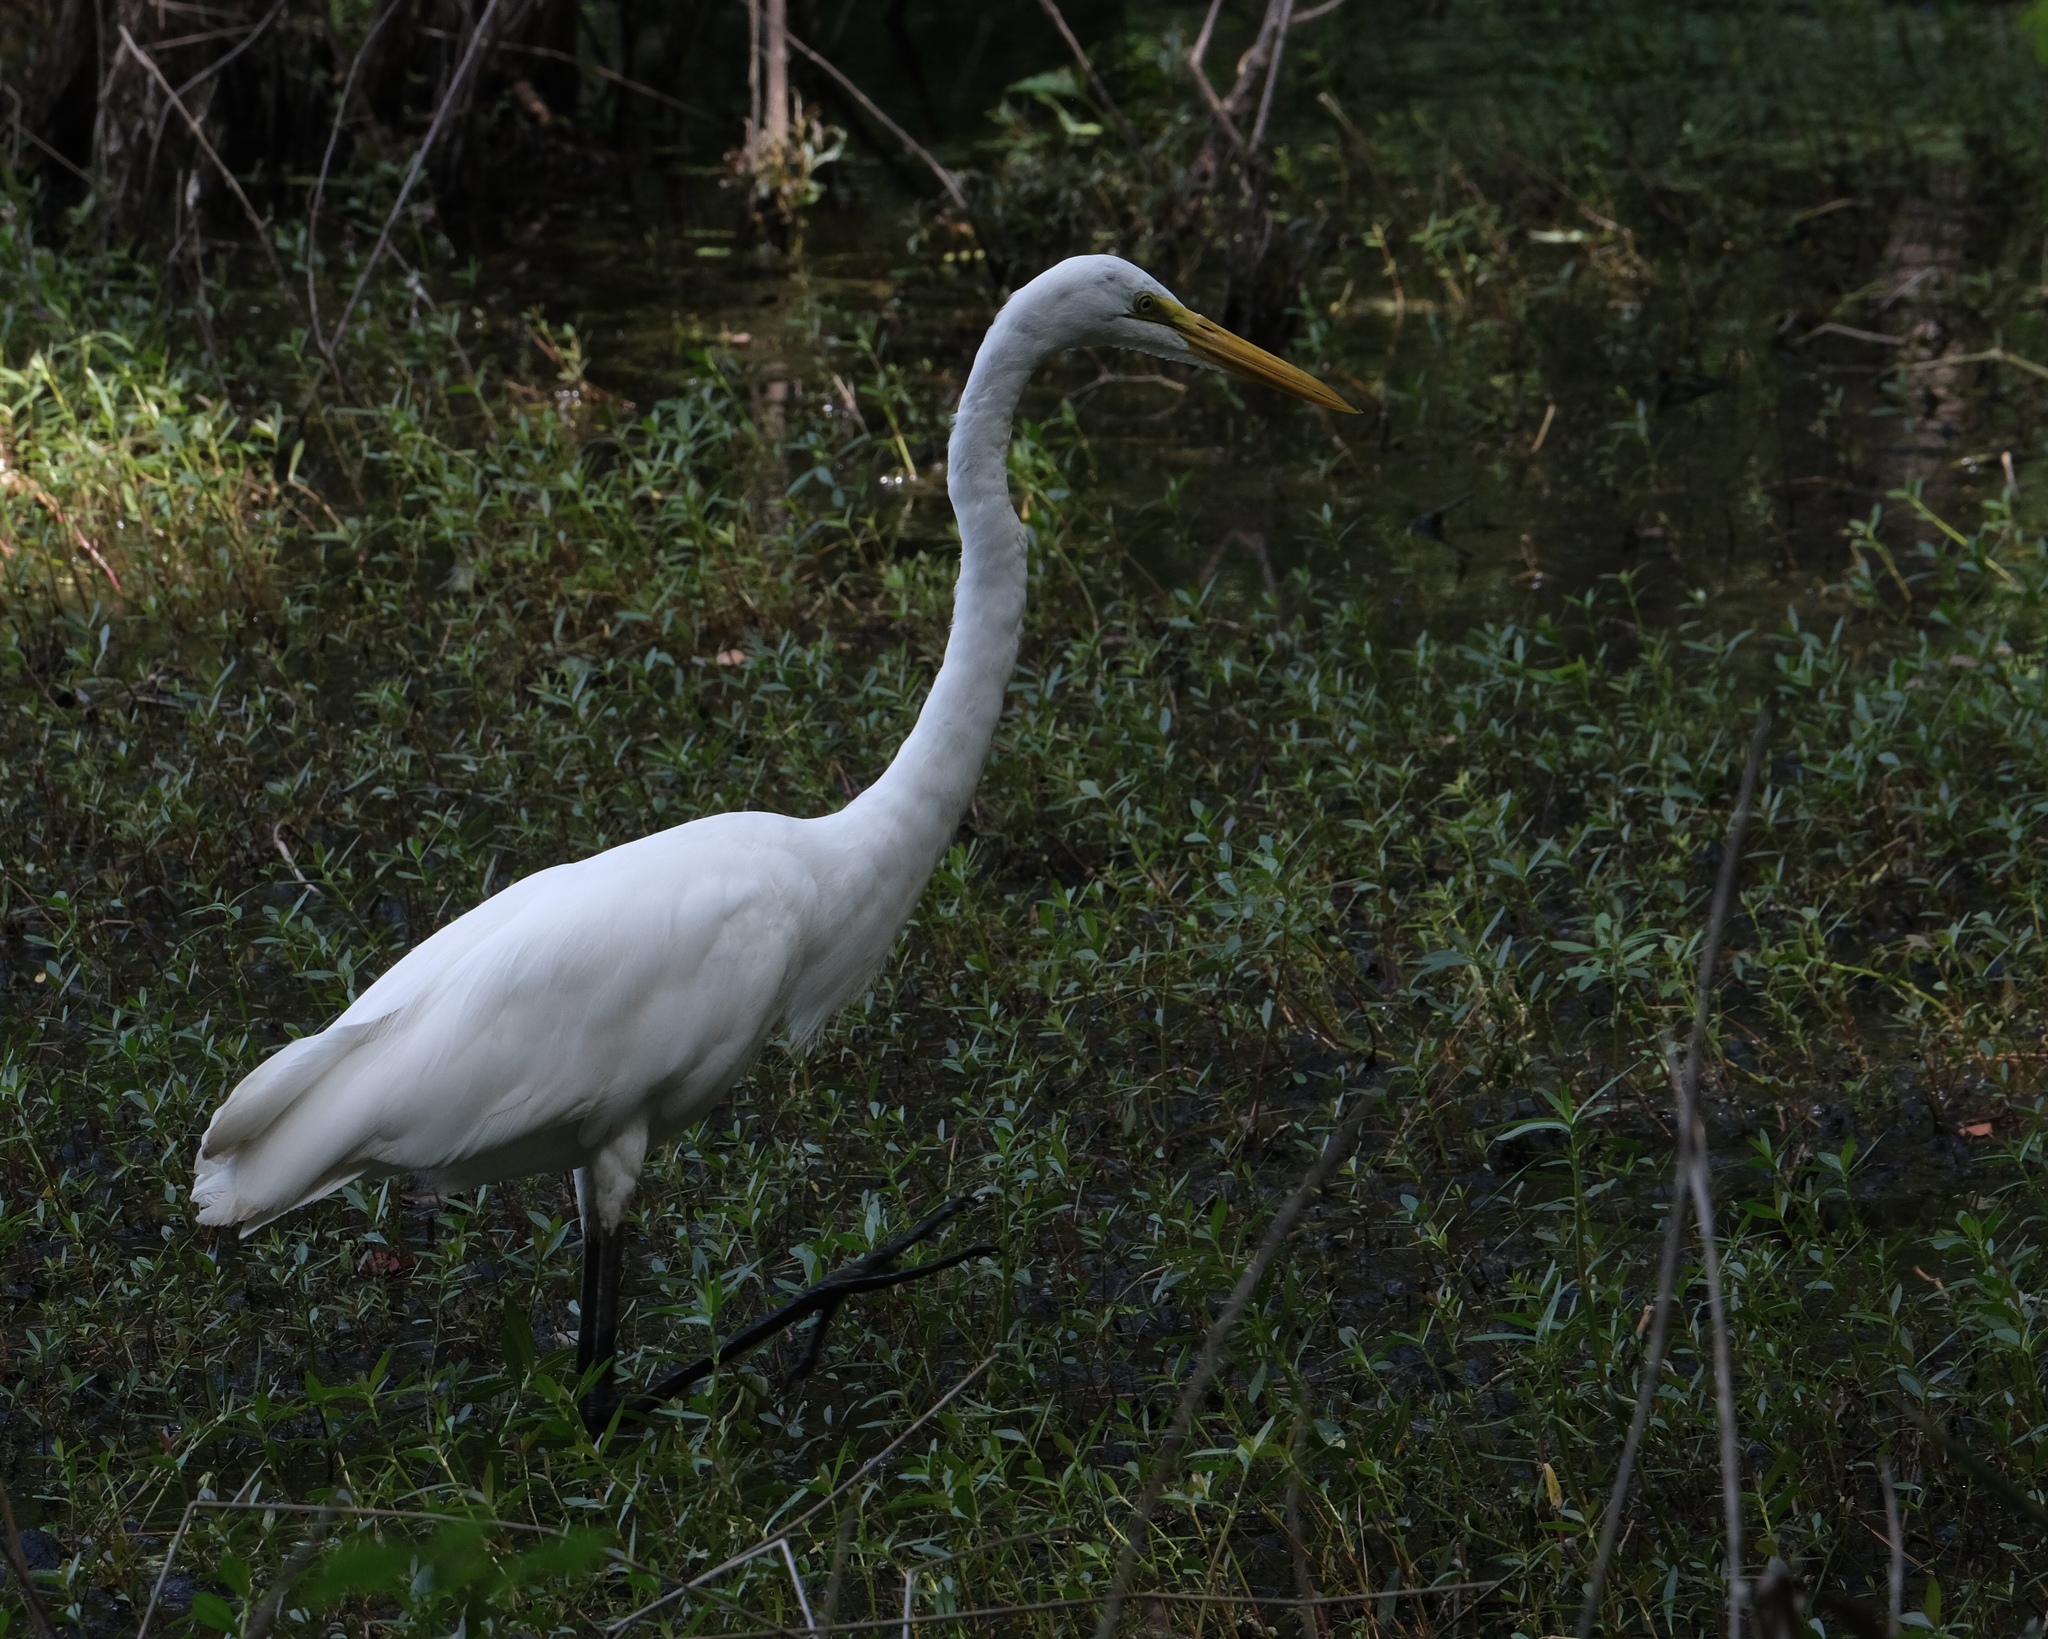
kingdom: Animalia
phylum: Chordata
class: Aves
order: Pelecaniformes
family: Ardeidae
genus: Ardea
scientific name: Ardea alba
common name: Great egret
